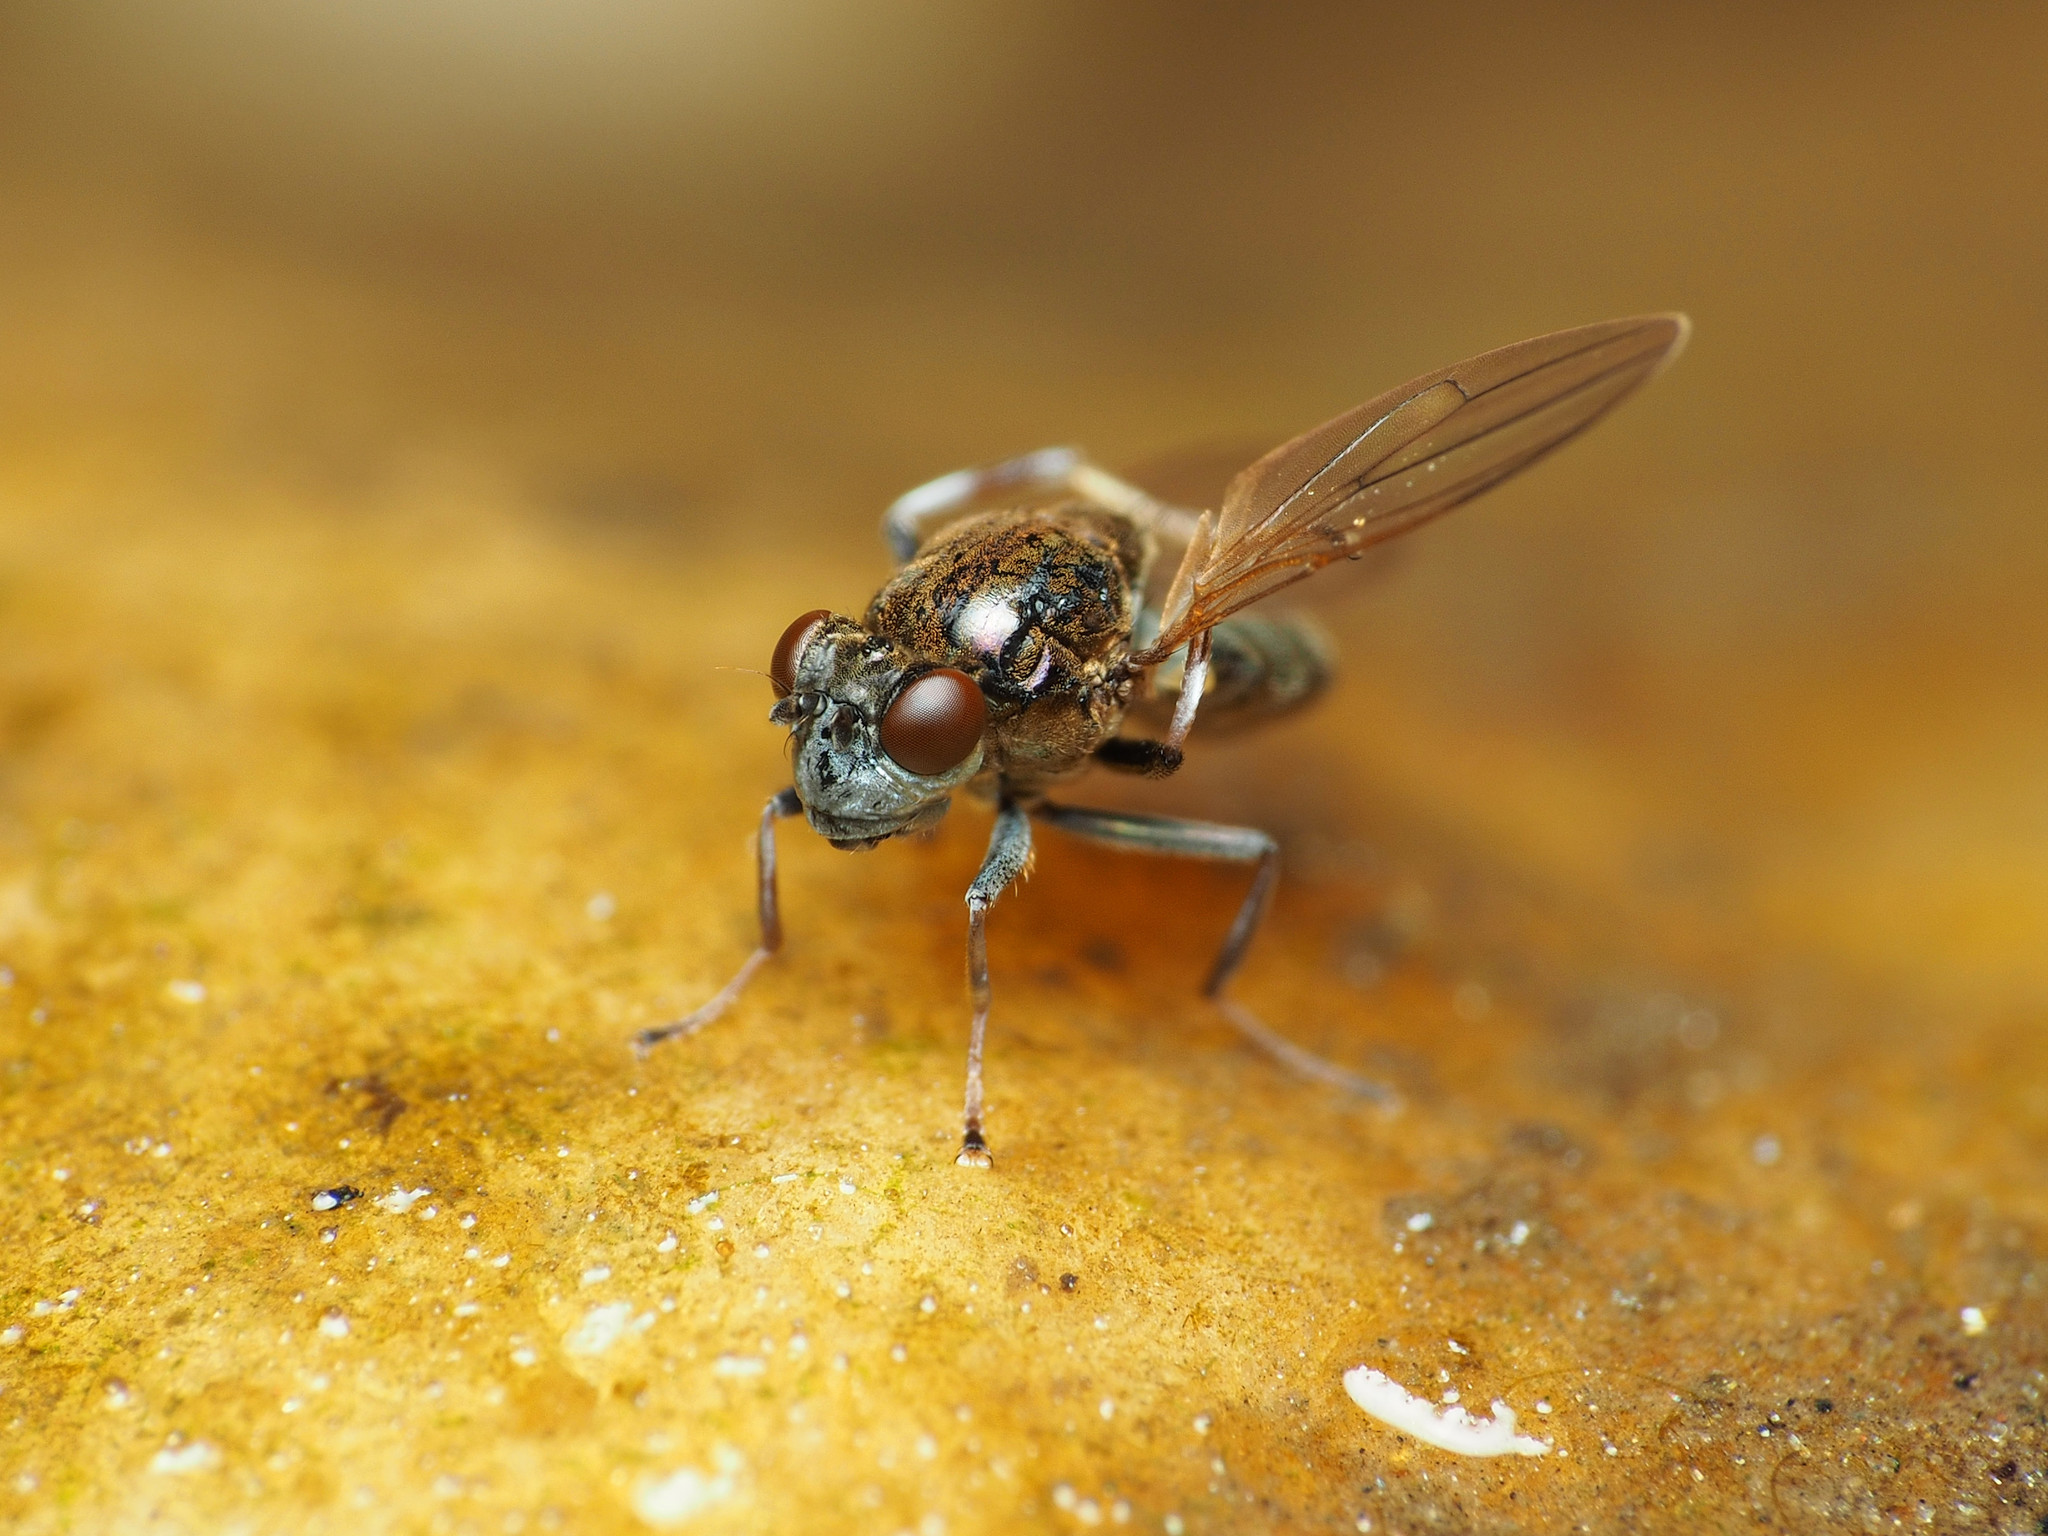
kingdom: Animalia
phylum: Arthropoda
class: Insecta
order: Diptera
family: Ephydridae
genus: Parydra
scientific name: Parydra quadrituberculata
